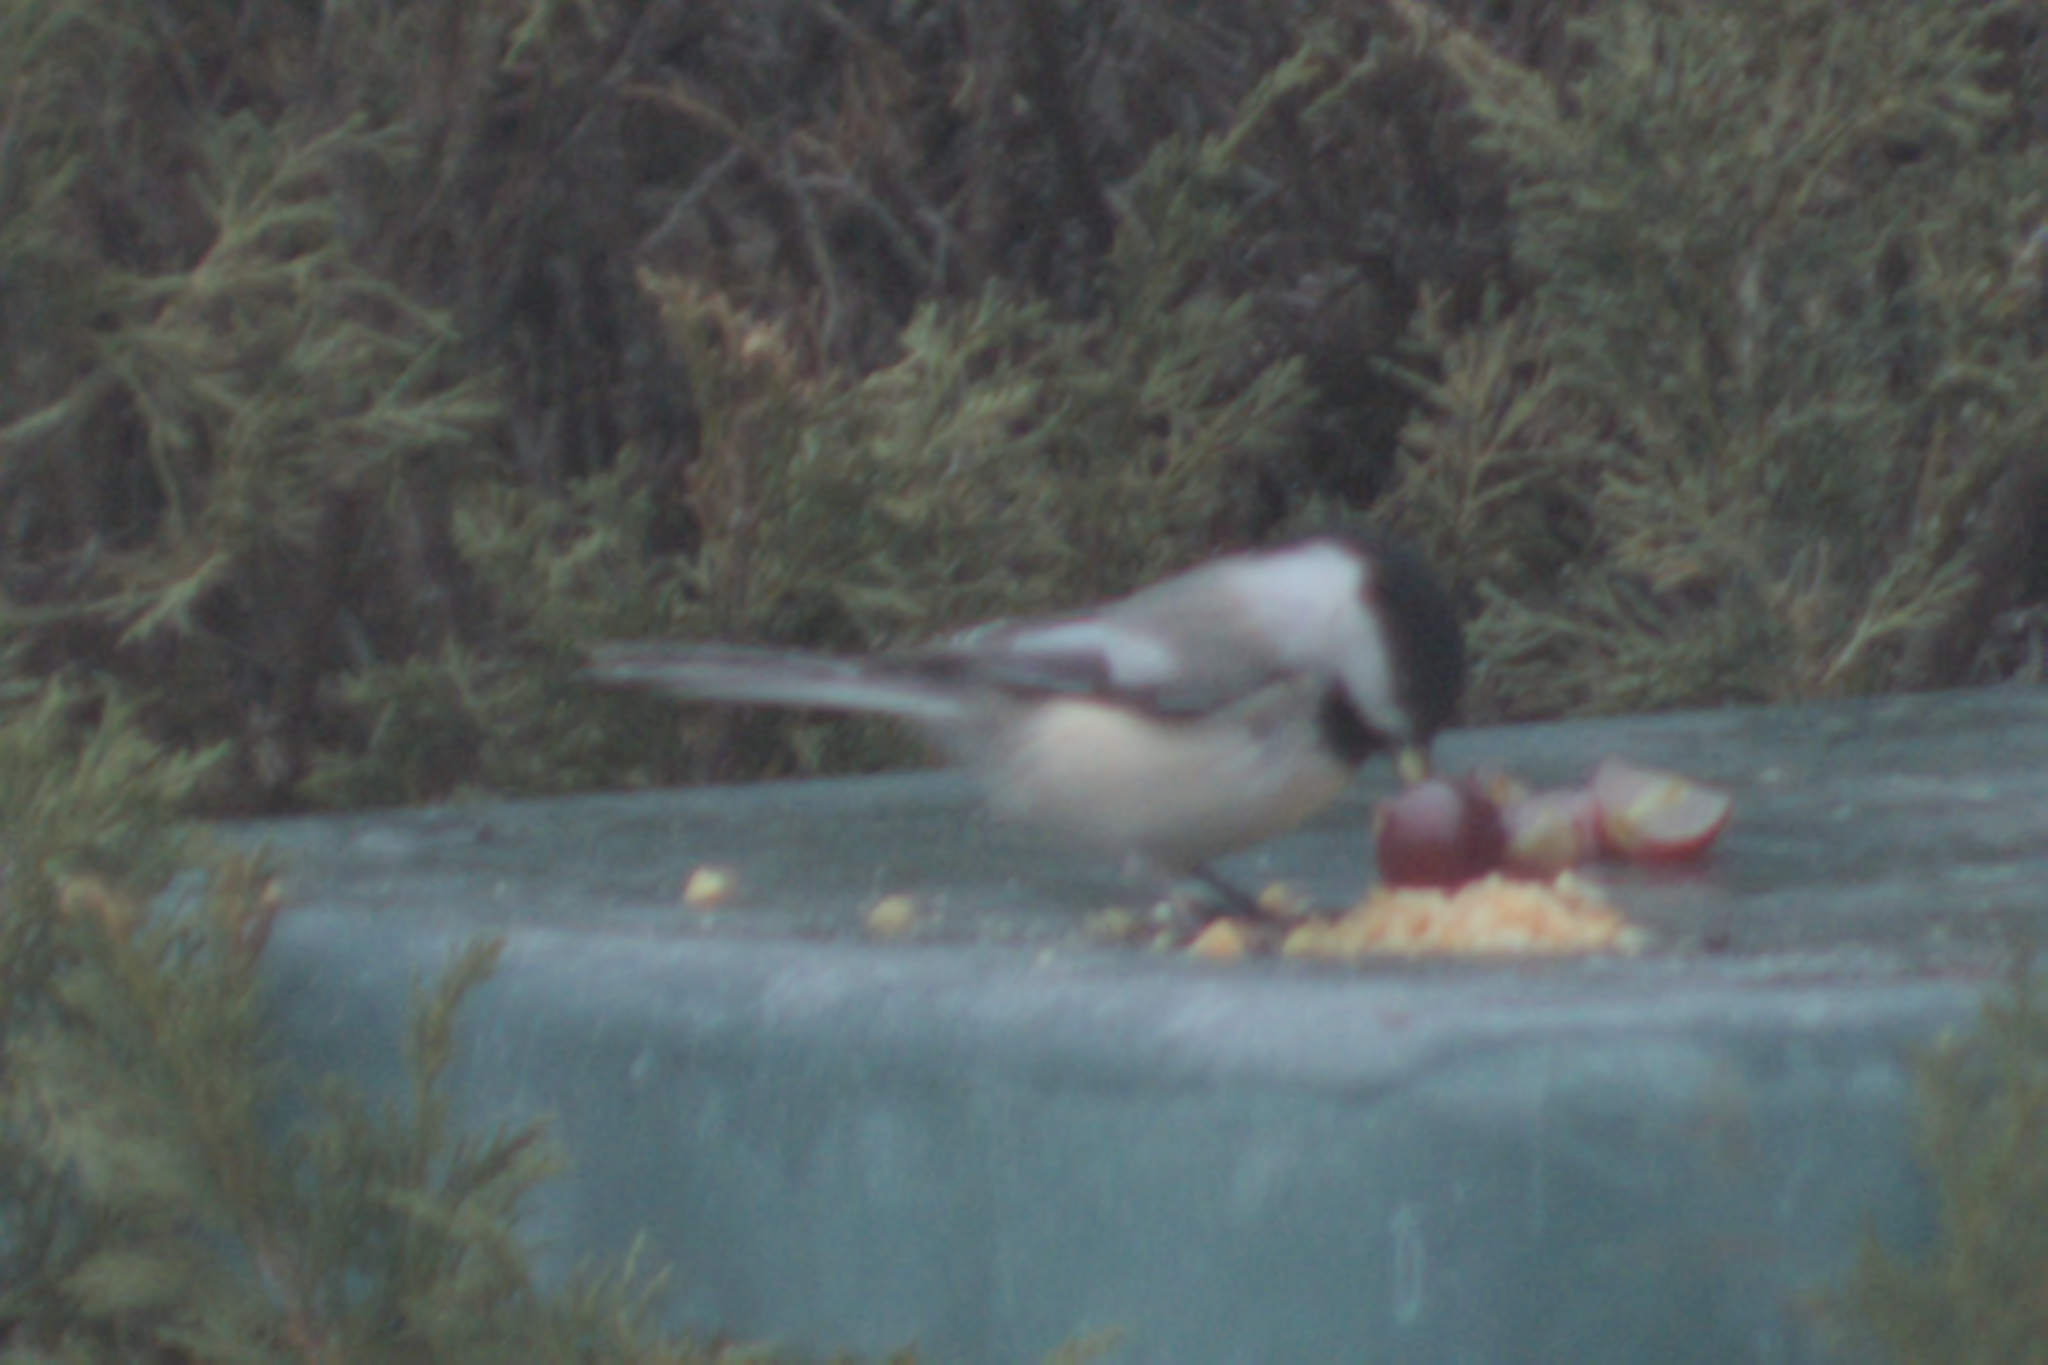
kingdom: Animalia
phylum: Chordata
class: Aves
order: Passeriformes
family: Paridae
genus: Poecile
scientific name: Poecile atricapillus
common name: Black-capped chickadee
